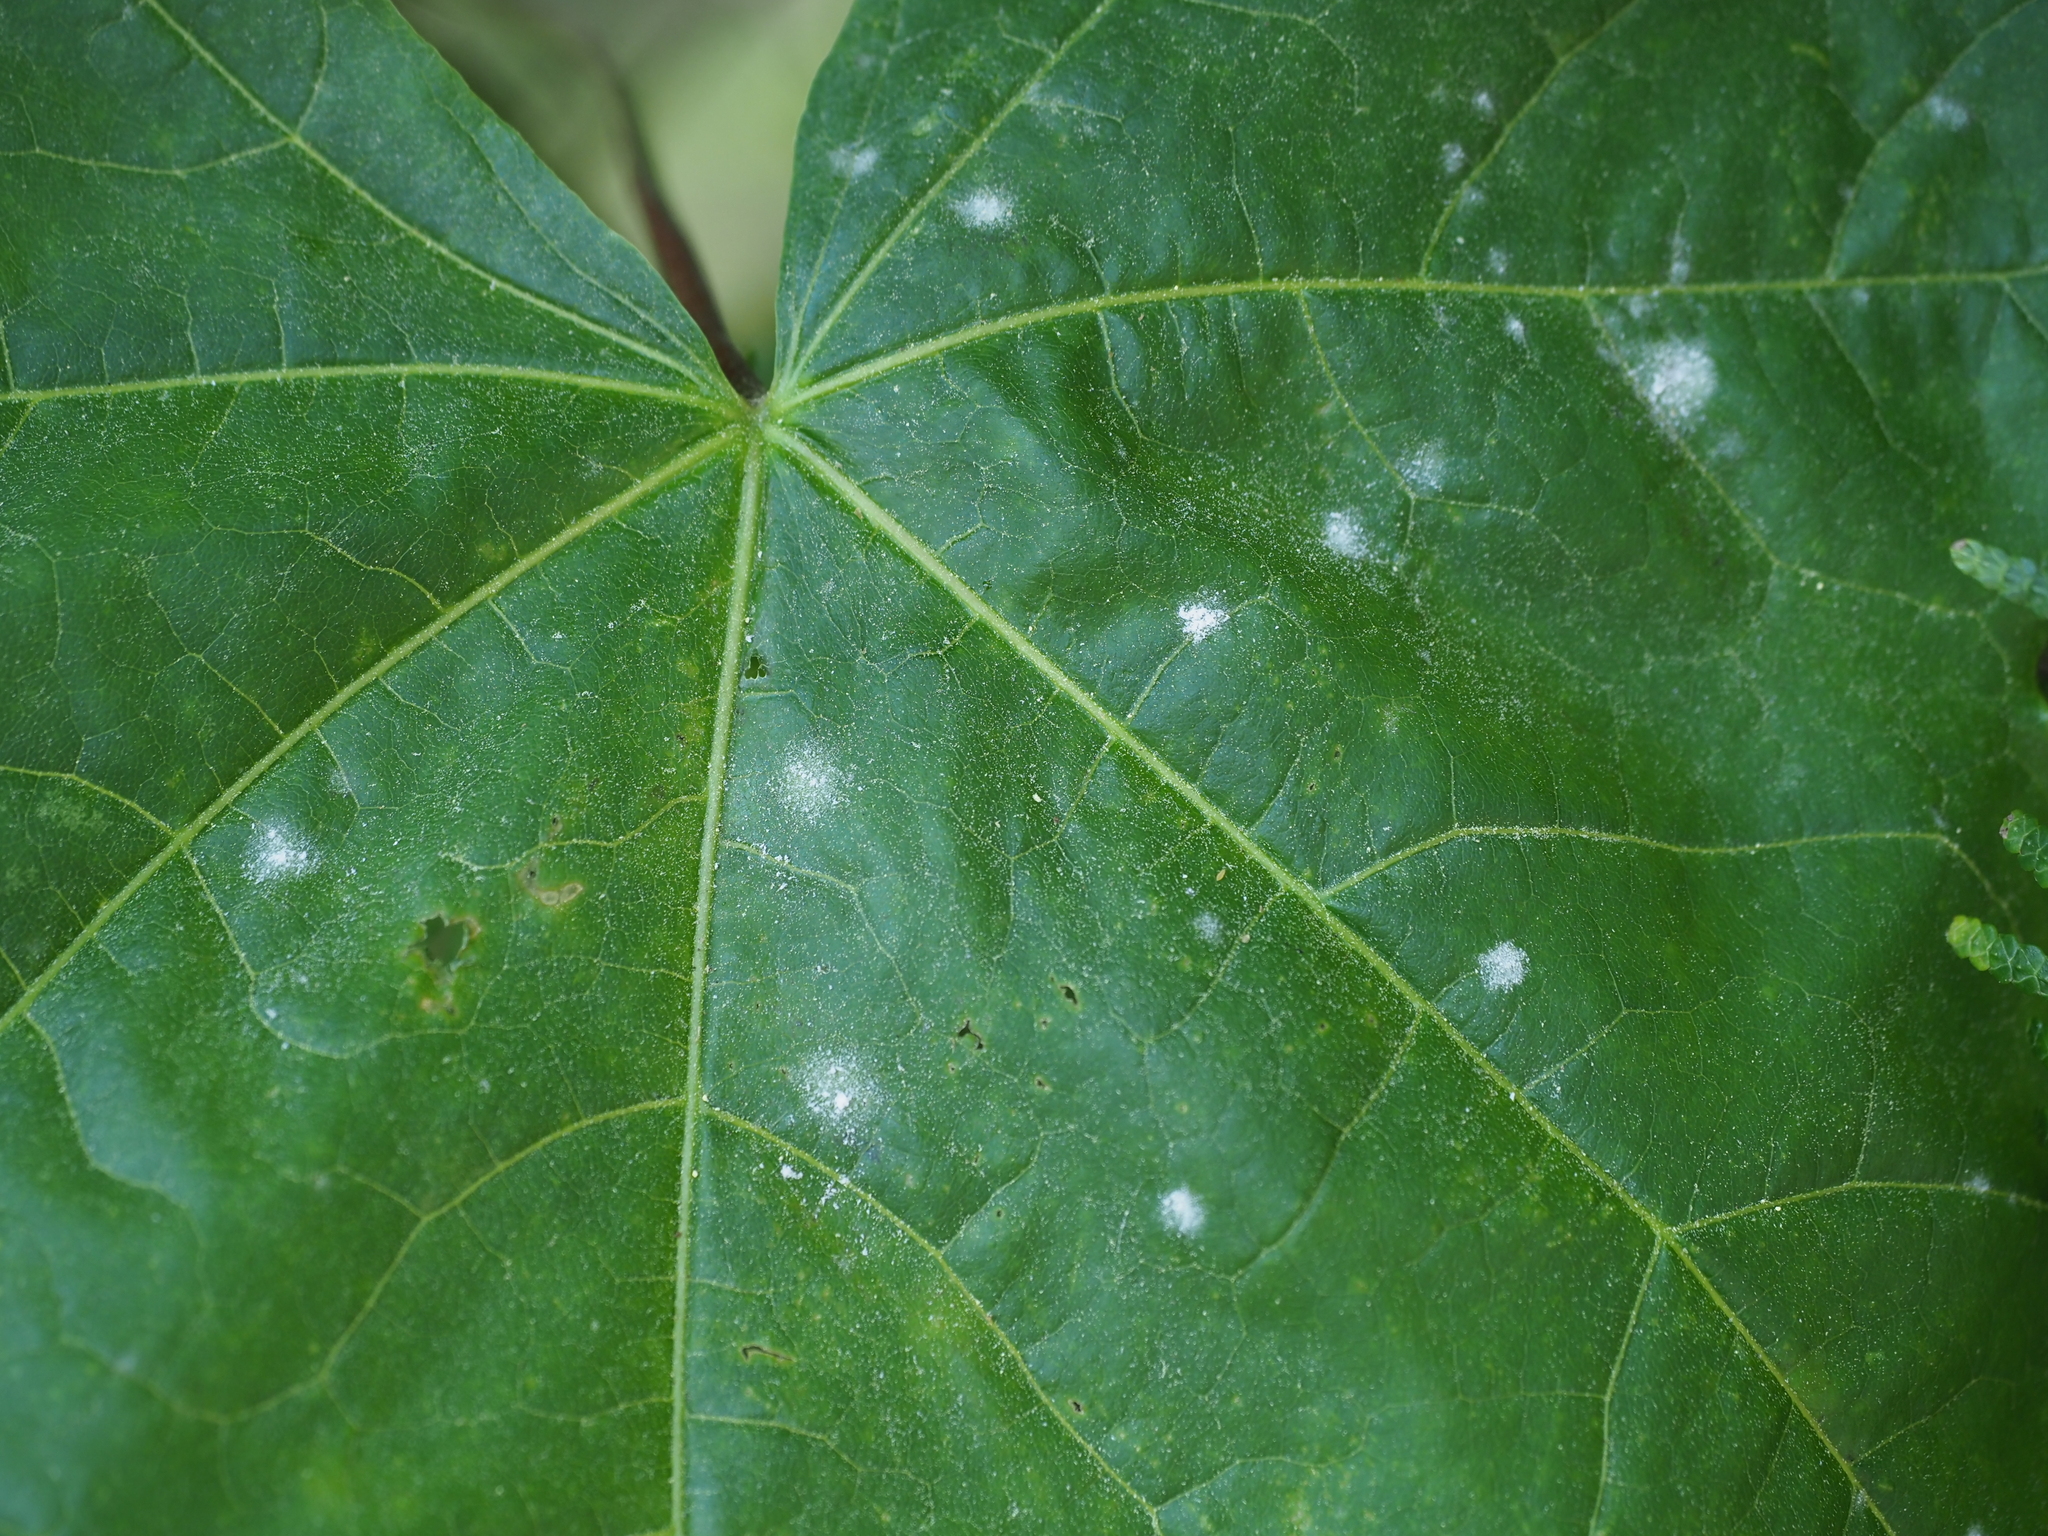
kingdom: Fungi
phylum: Ascomycota
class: Leotiomycetes
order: Helotiales
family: Erysiphaceae
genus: Sawadaea
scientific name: Sawadaea tulasnei
